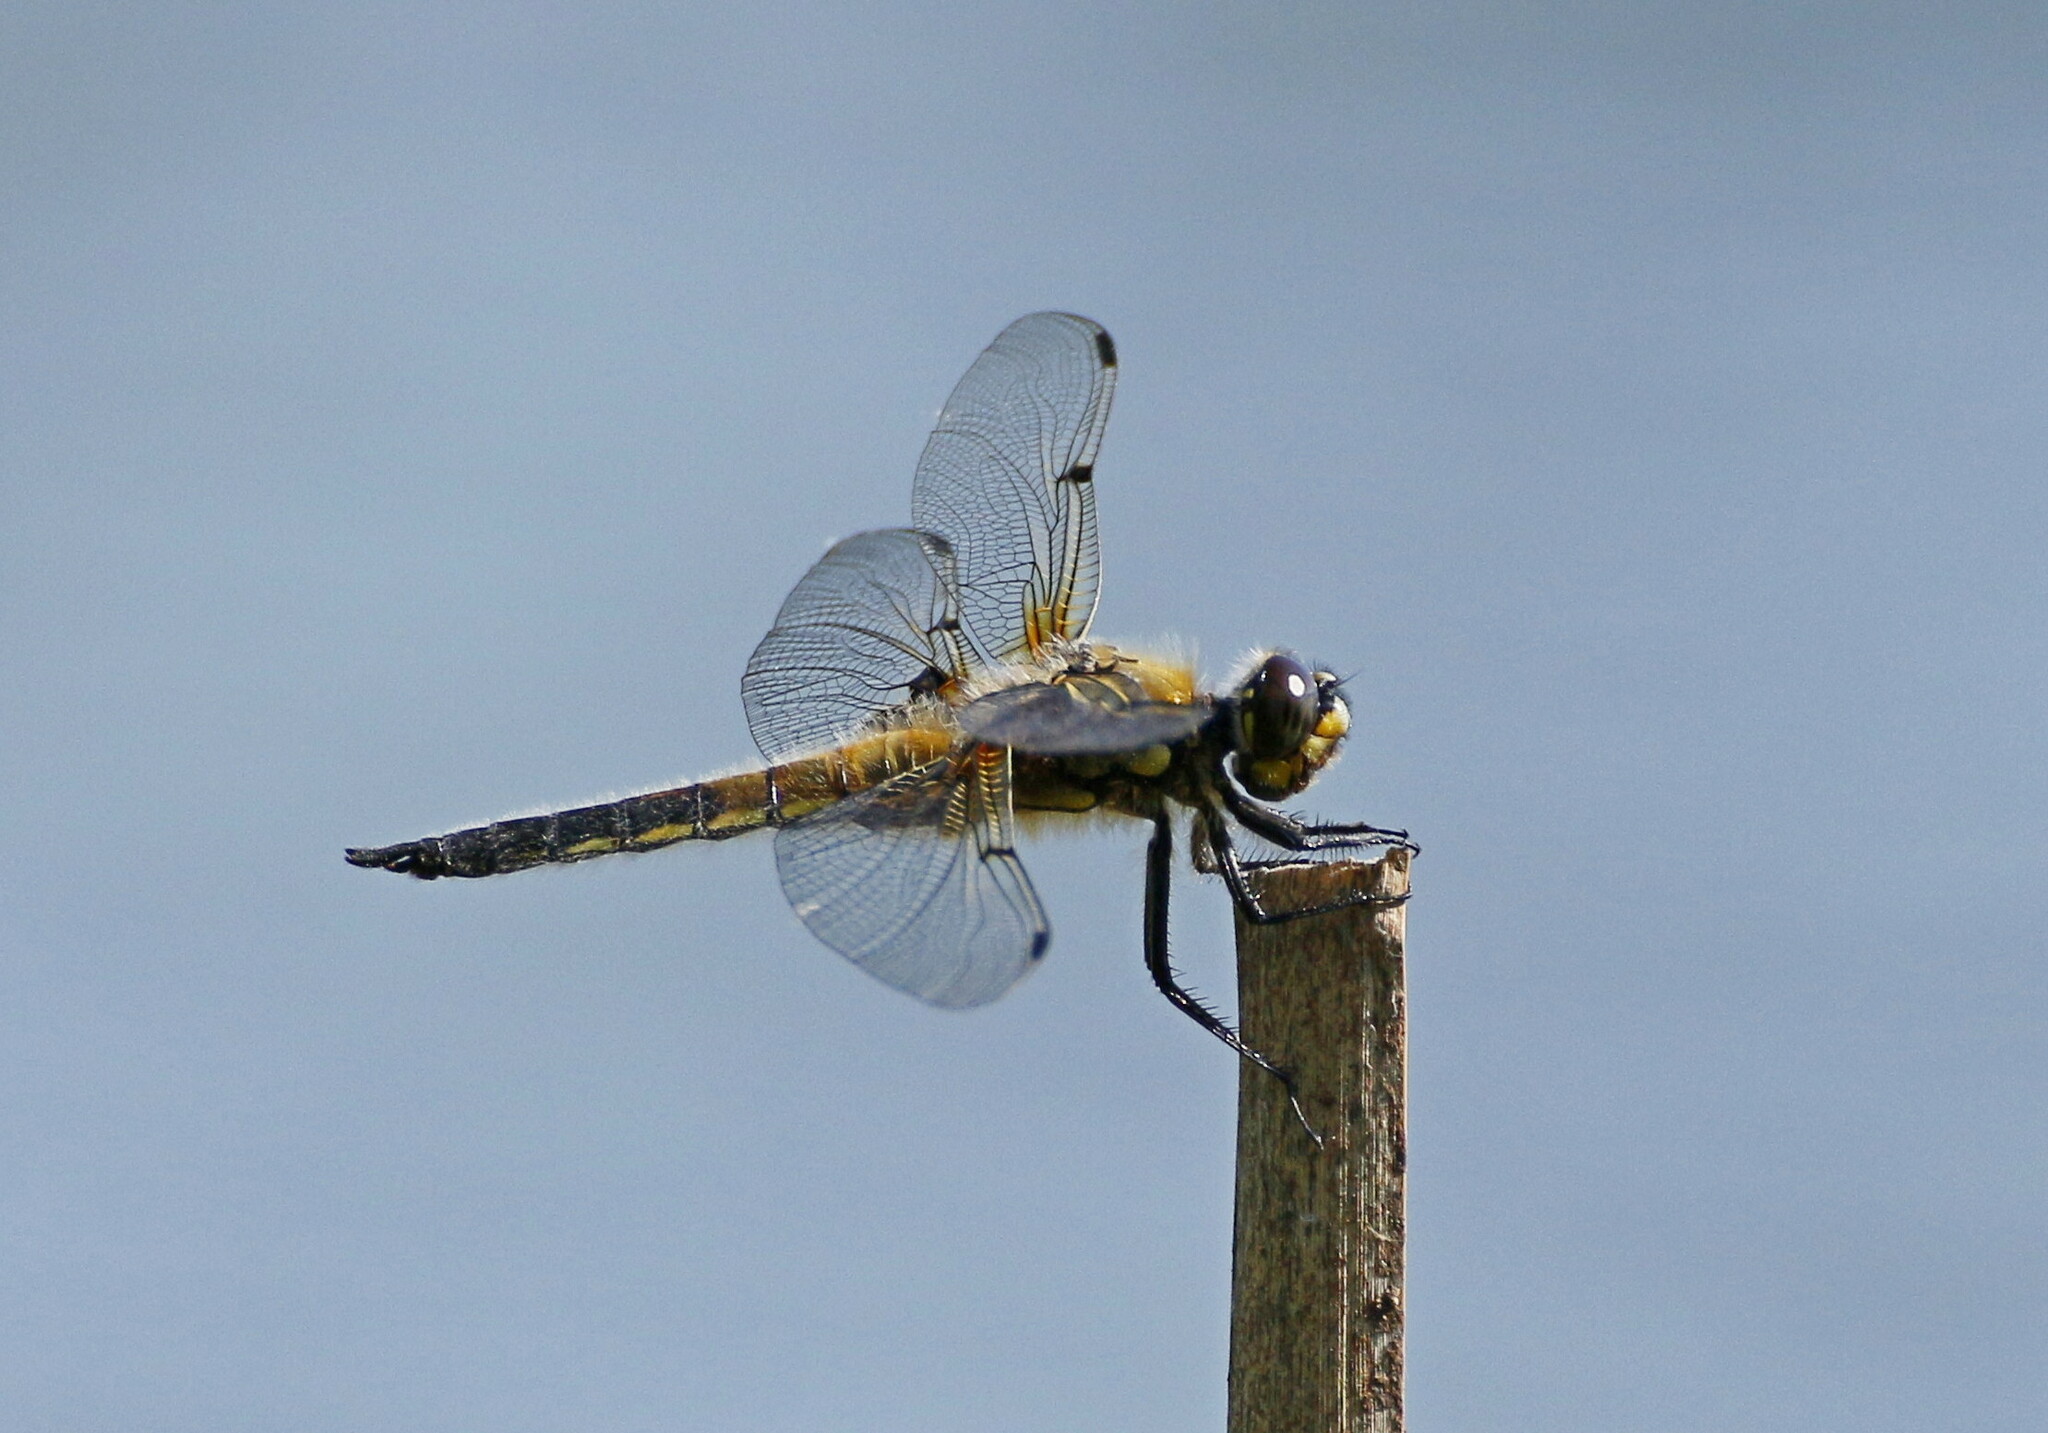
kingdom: Animalia
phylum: Arthropoda
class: Insecta
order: Odonata
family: Libellulidae
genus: Libellula
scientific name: Libellula quadrimaculata
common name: Four-spotted chaser
